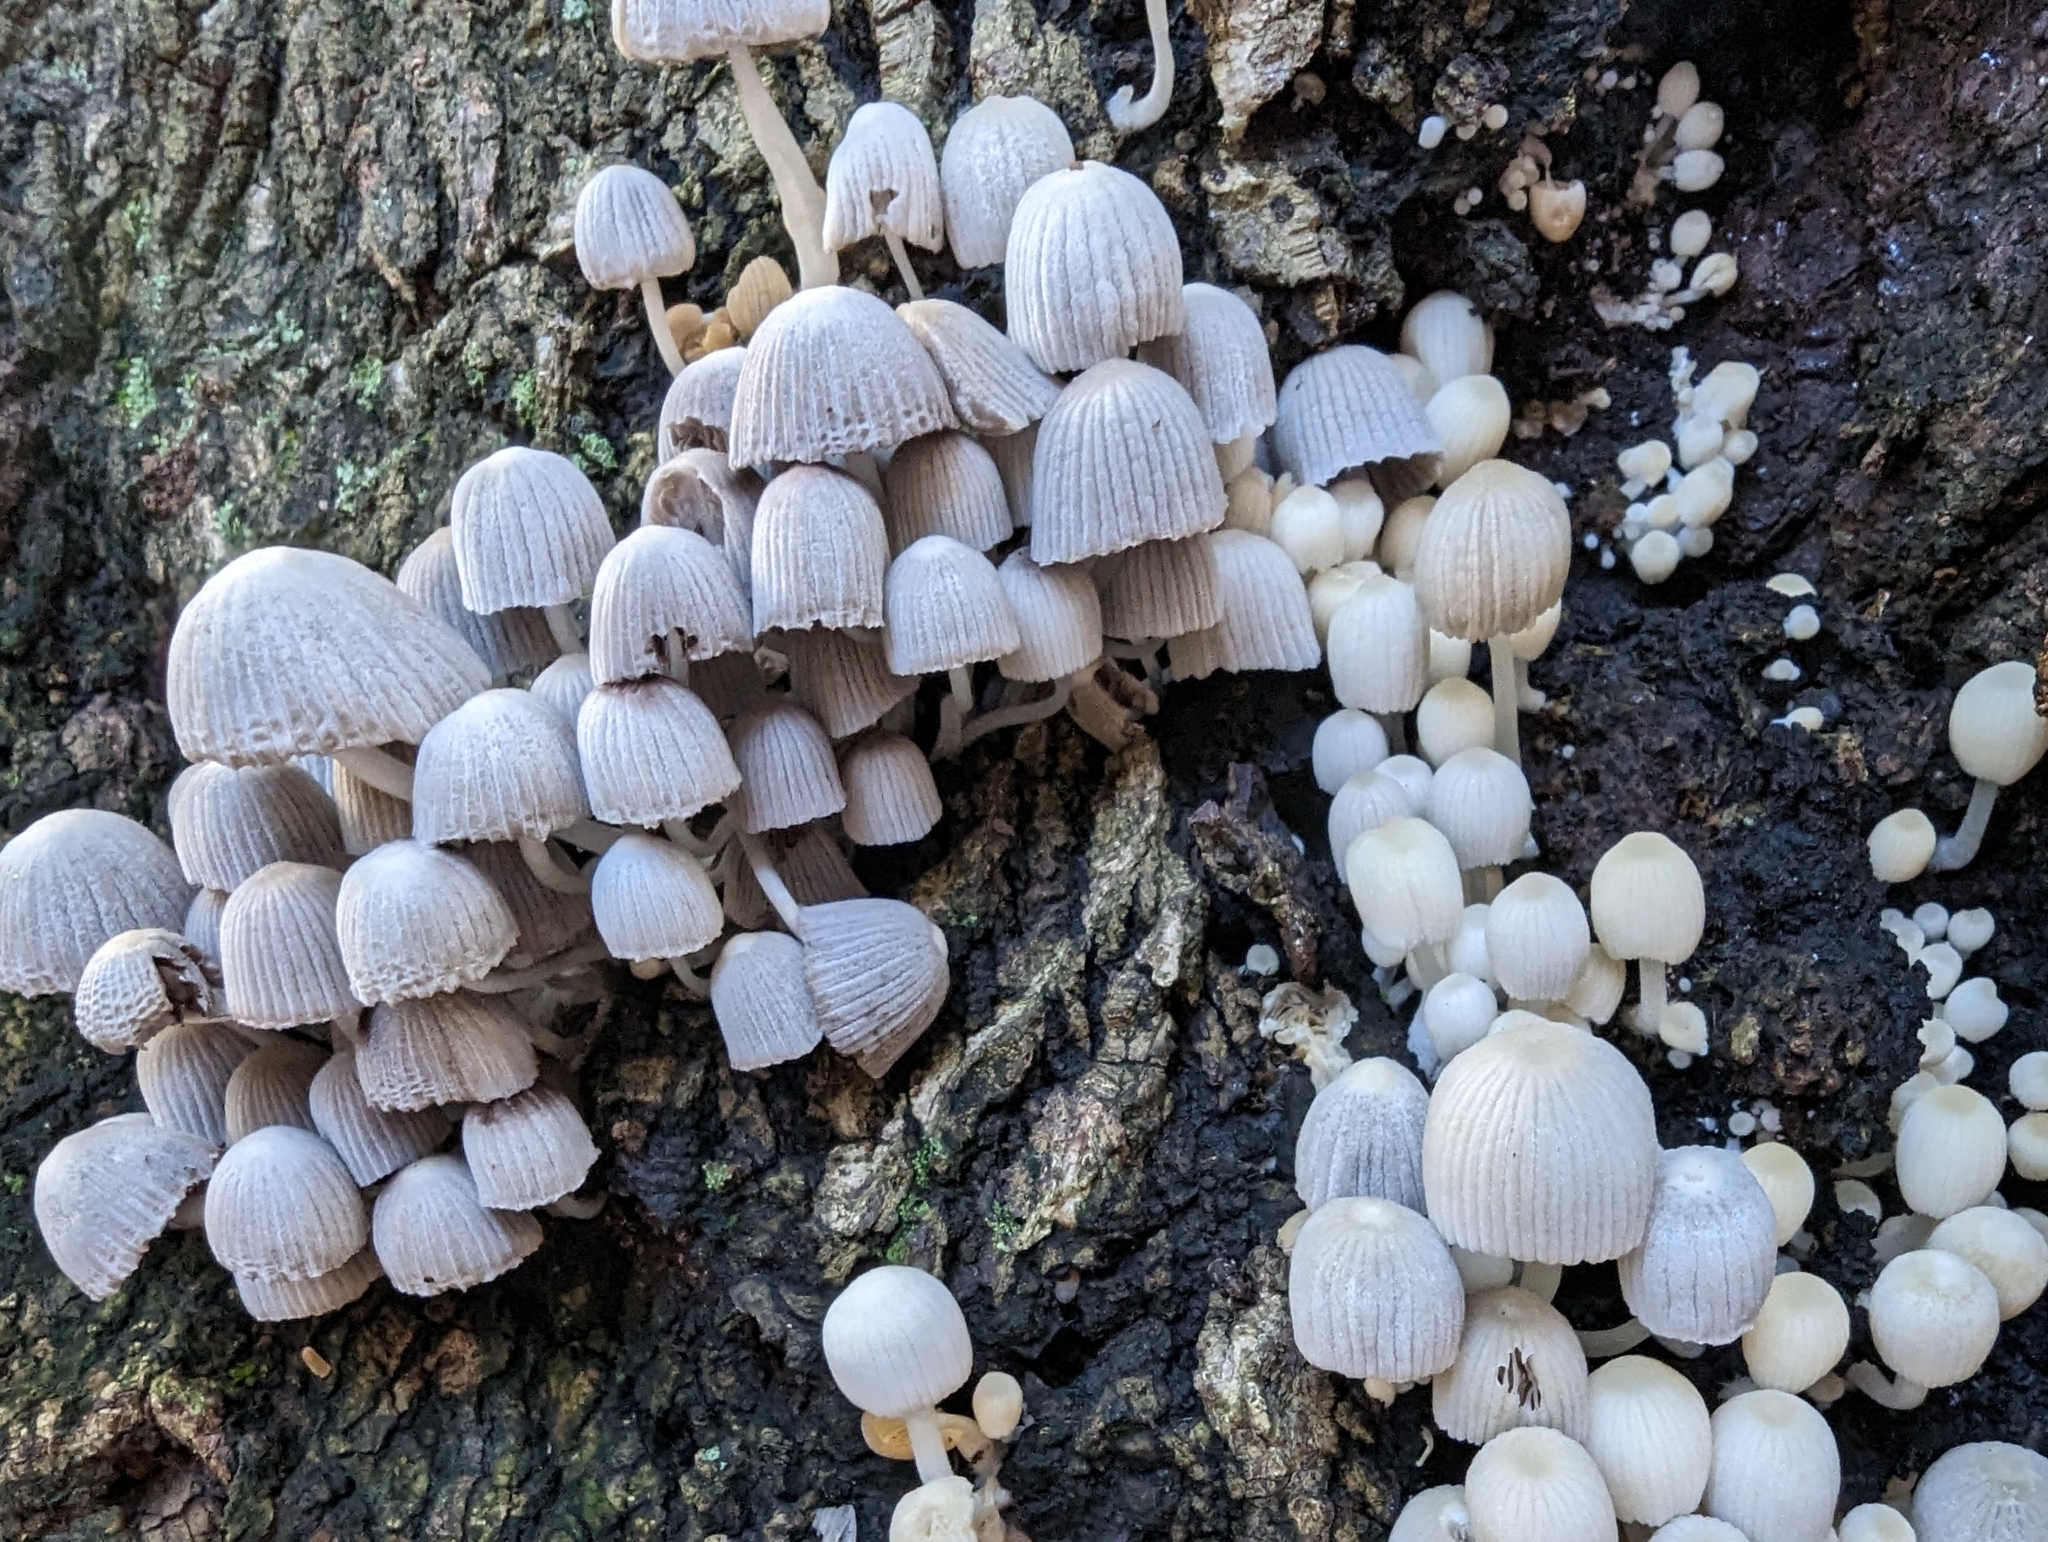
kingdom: Fungi
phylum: Basidiomycota
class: Agaricomycetes
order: Agaricales
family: Psathyrellaceae
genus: Coprinellus
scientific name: Coprinellus disseminatus
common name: Fairies' bonnets
